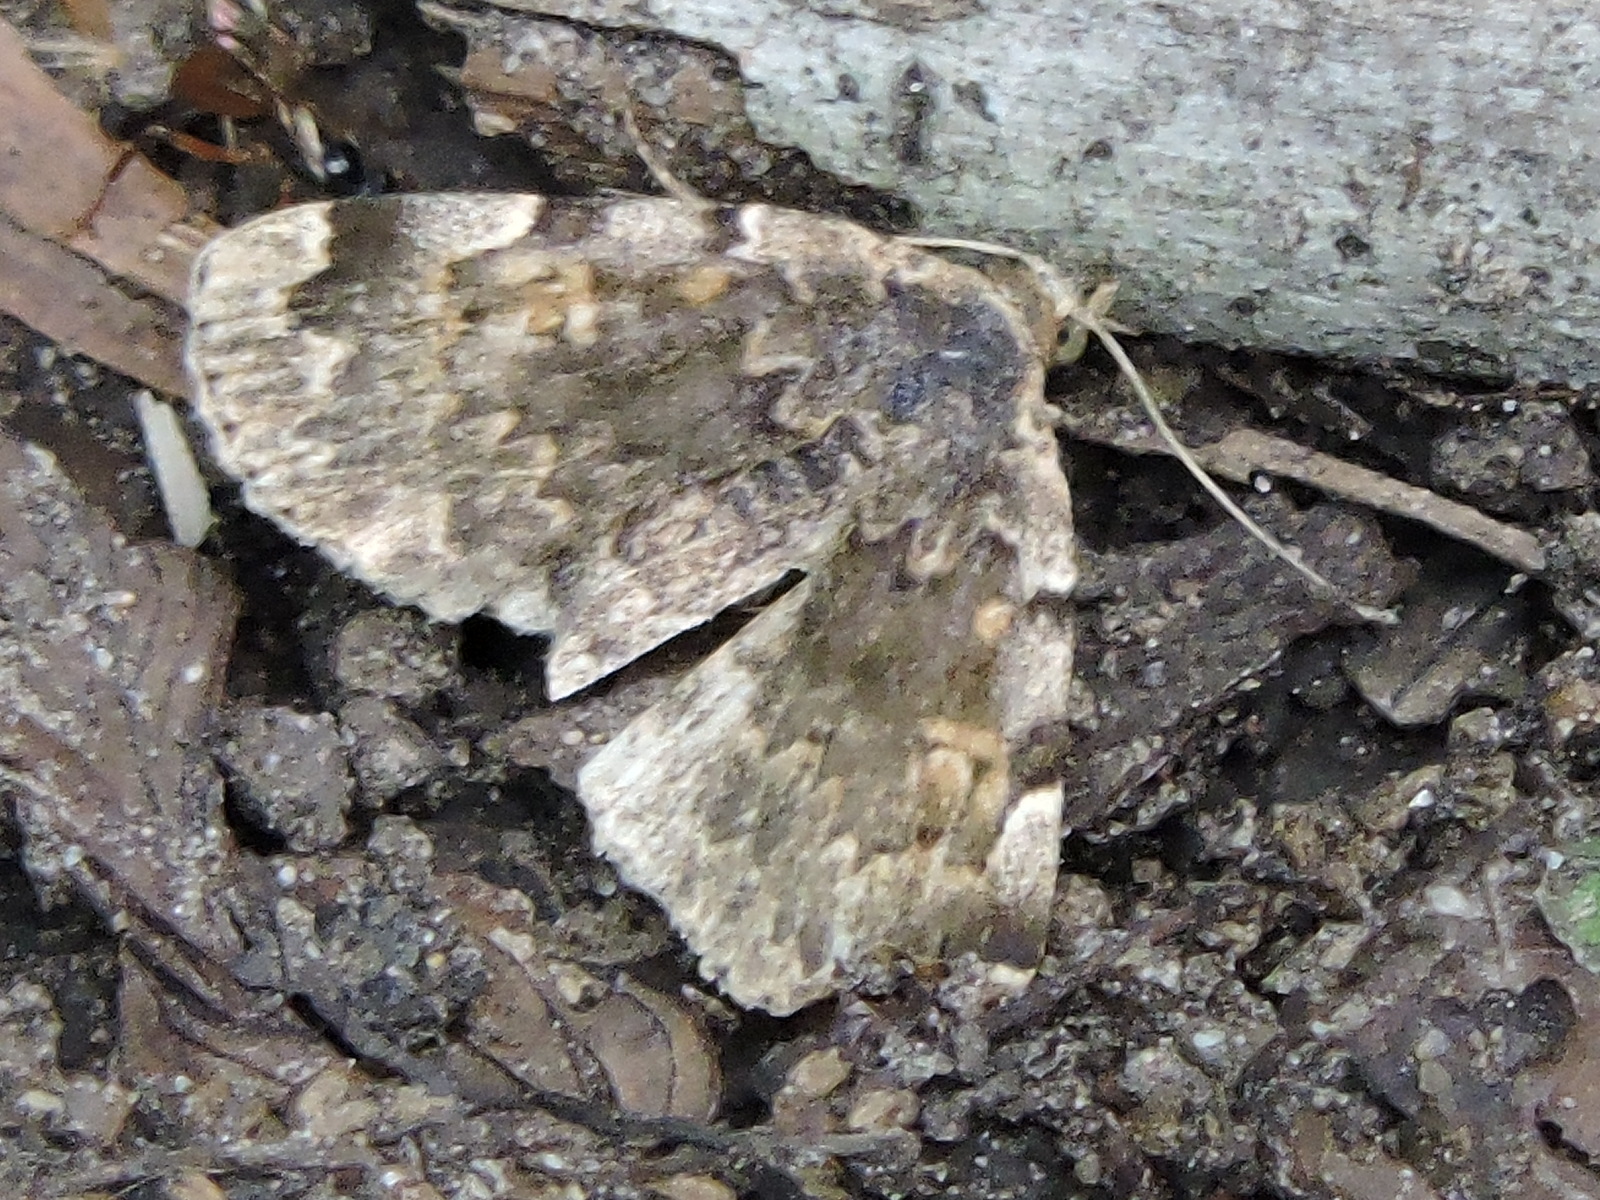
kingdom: Animalia
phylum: Arthropoda
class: Insecta
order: Lepidoptera
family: Erebidae
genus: Idia
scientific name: Idia majoralis
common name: Greater idia moth
